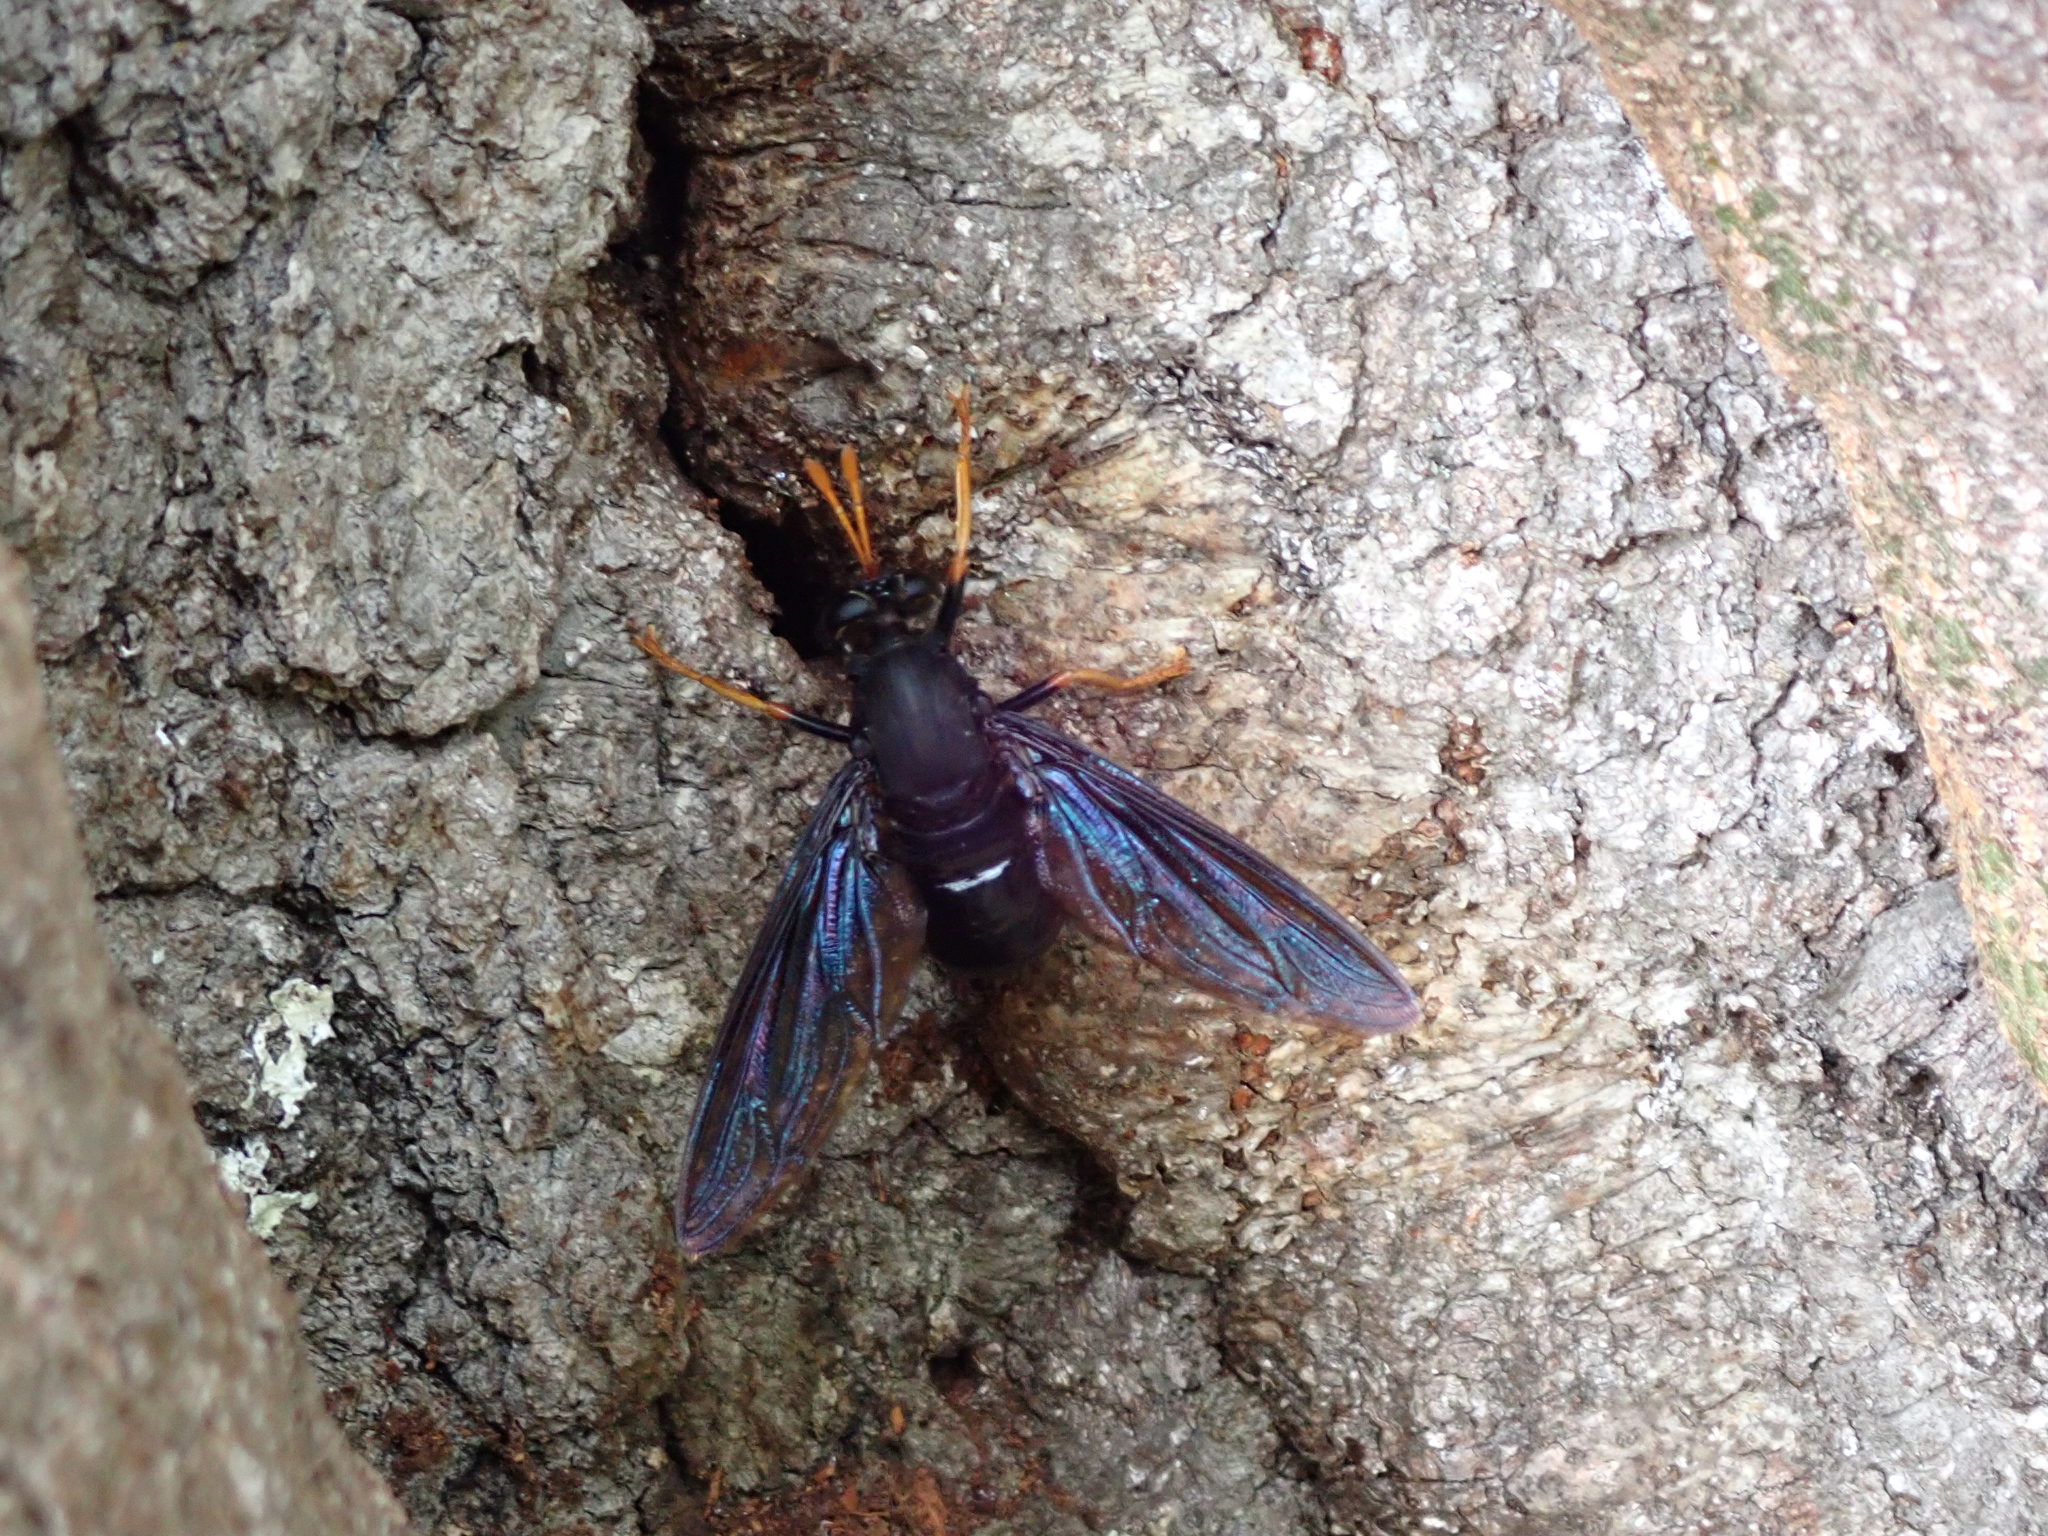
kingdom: Animalia
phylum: Arthropoda
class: Insecta
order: Diptera
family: Mydidae
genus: Mydas
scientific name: Mydas tibialis
